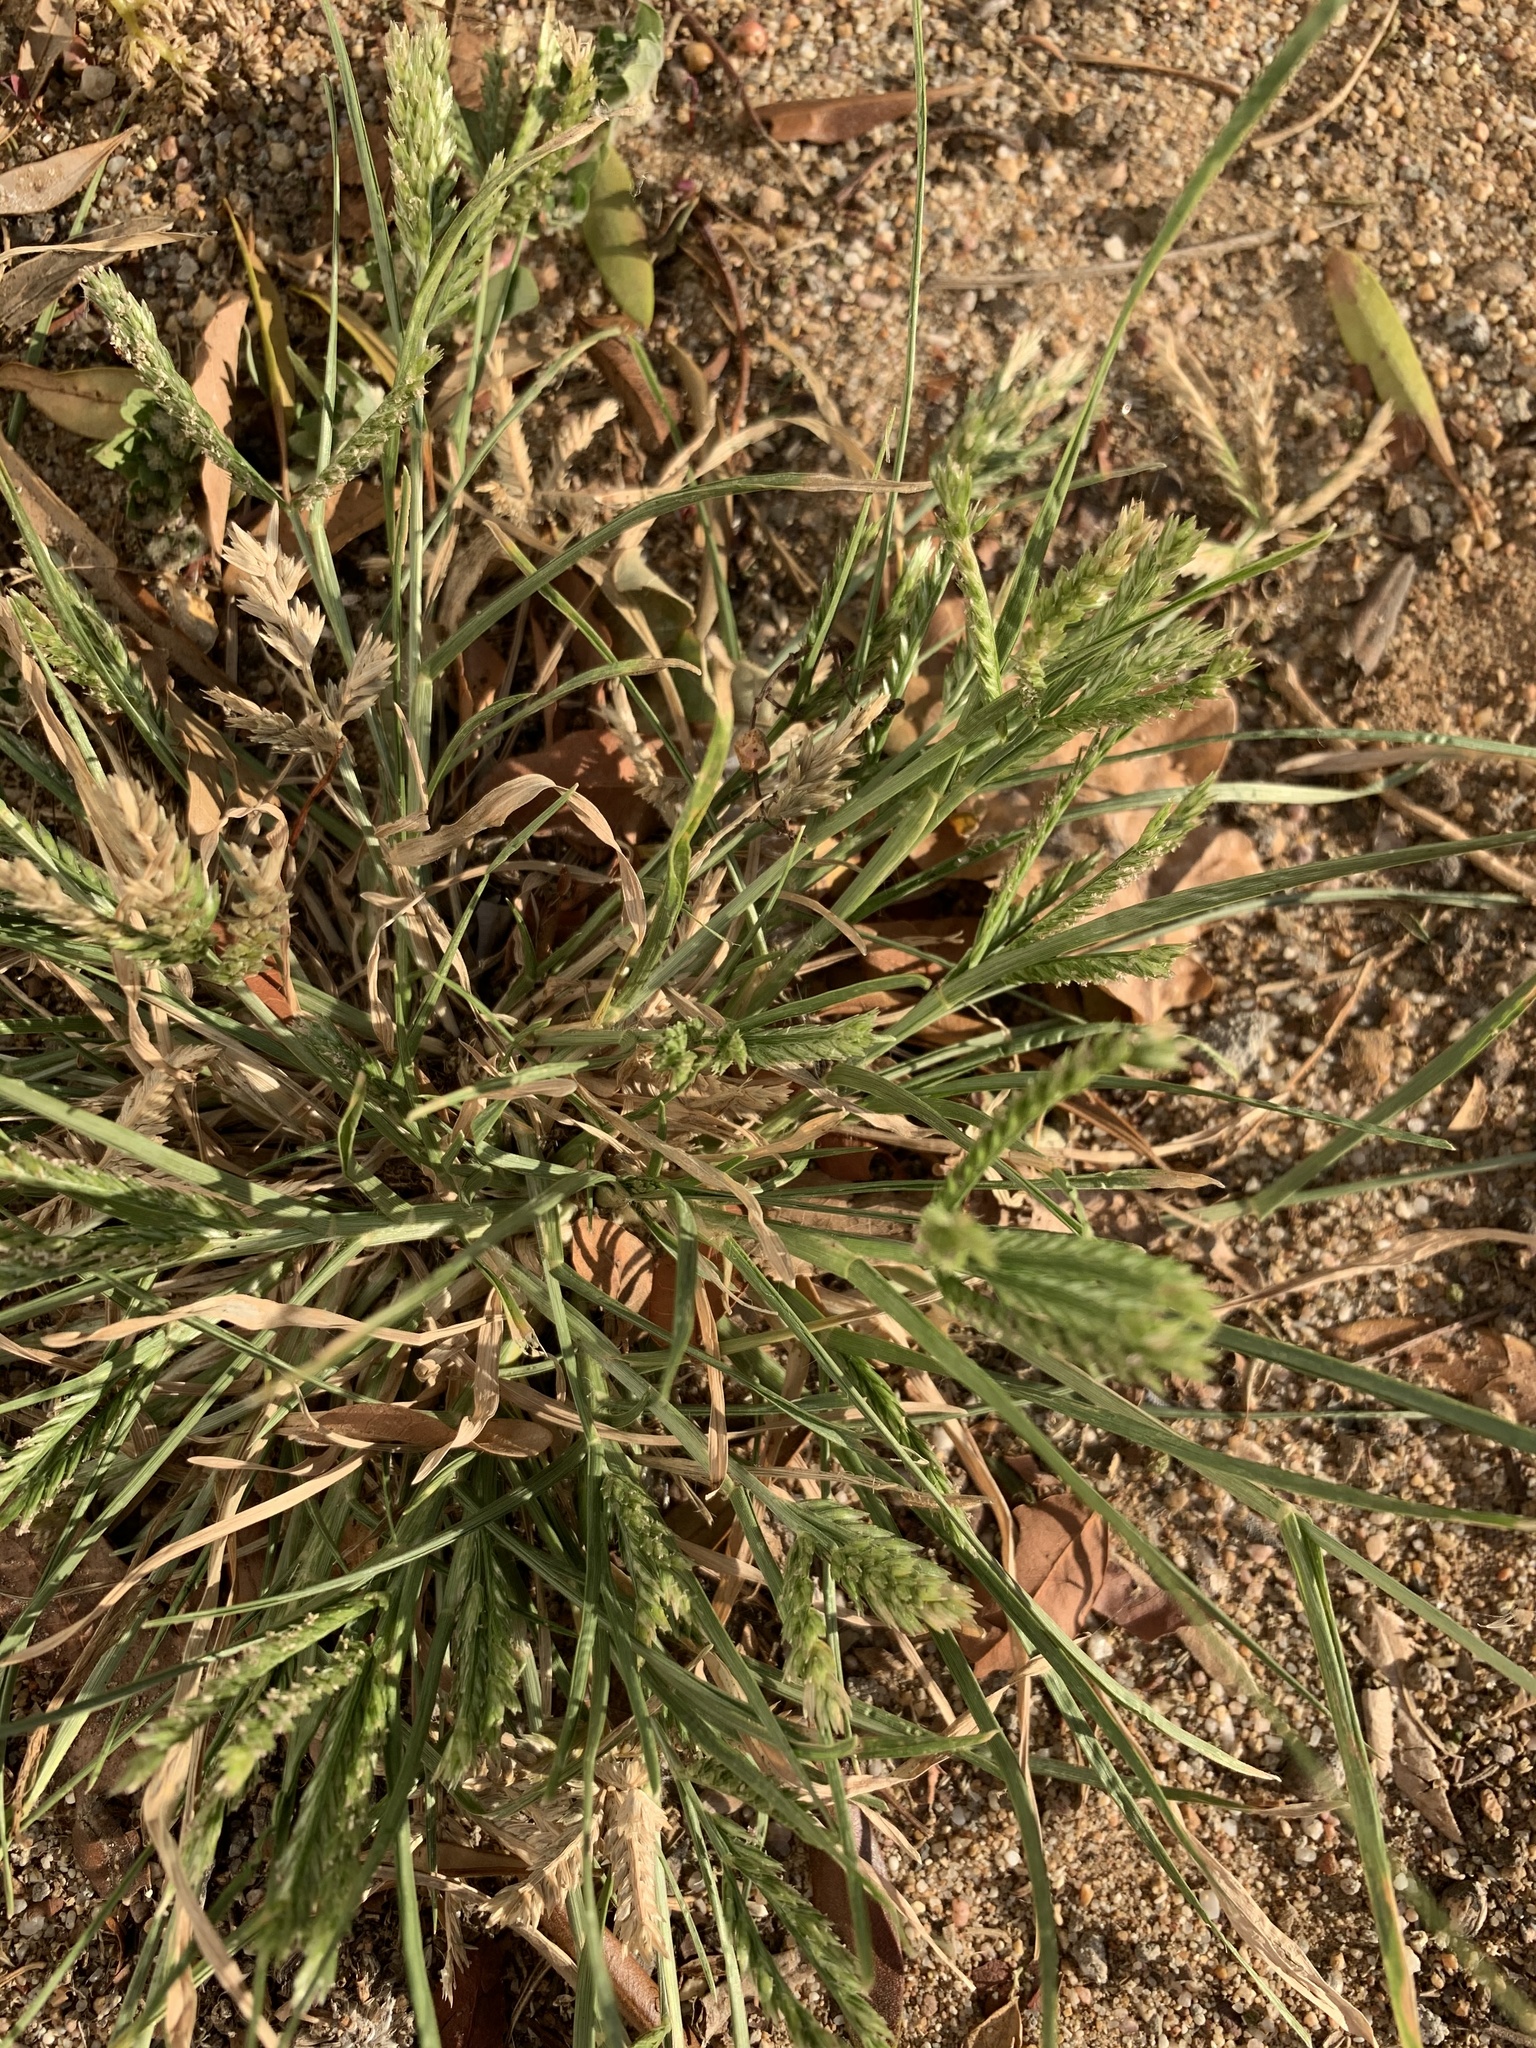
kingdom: Plantae
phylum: Tracheophyta
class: Liliopsida
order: Poales
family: Poaceae
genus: Eleusine
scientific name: Eleusine indica
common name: Yard-grass
